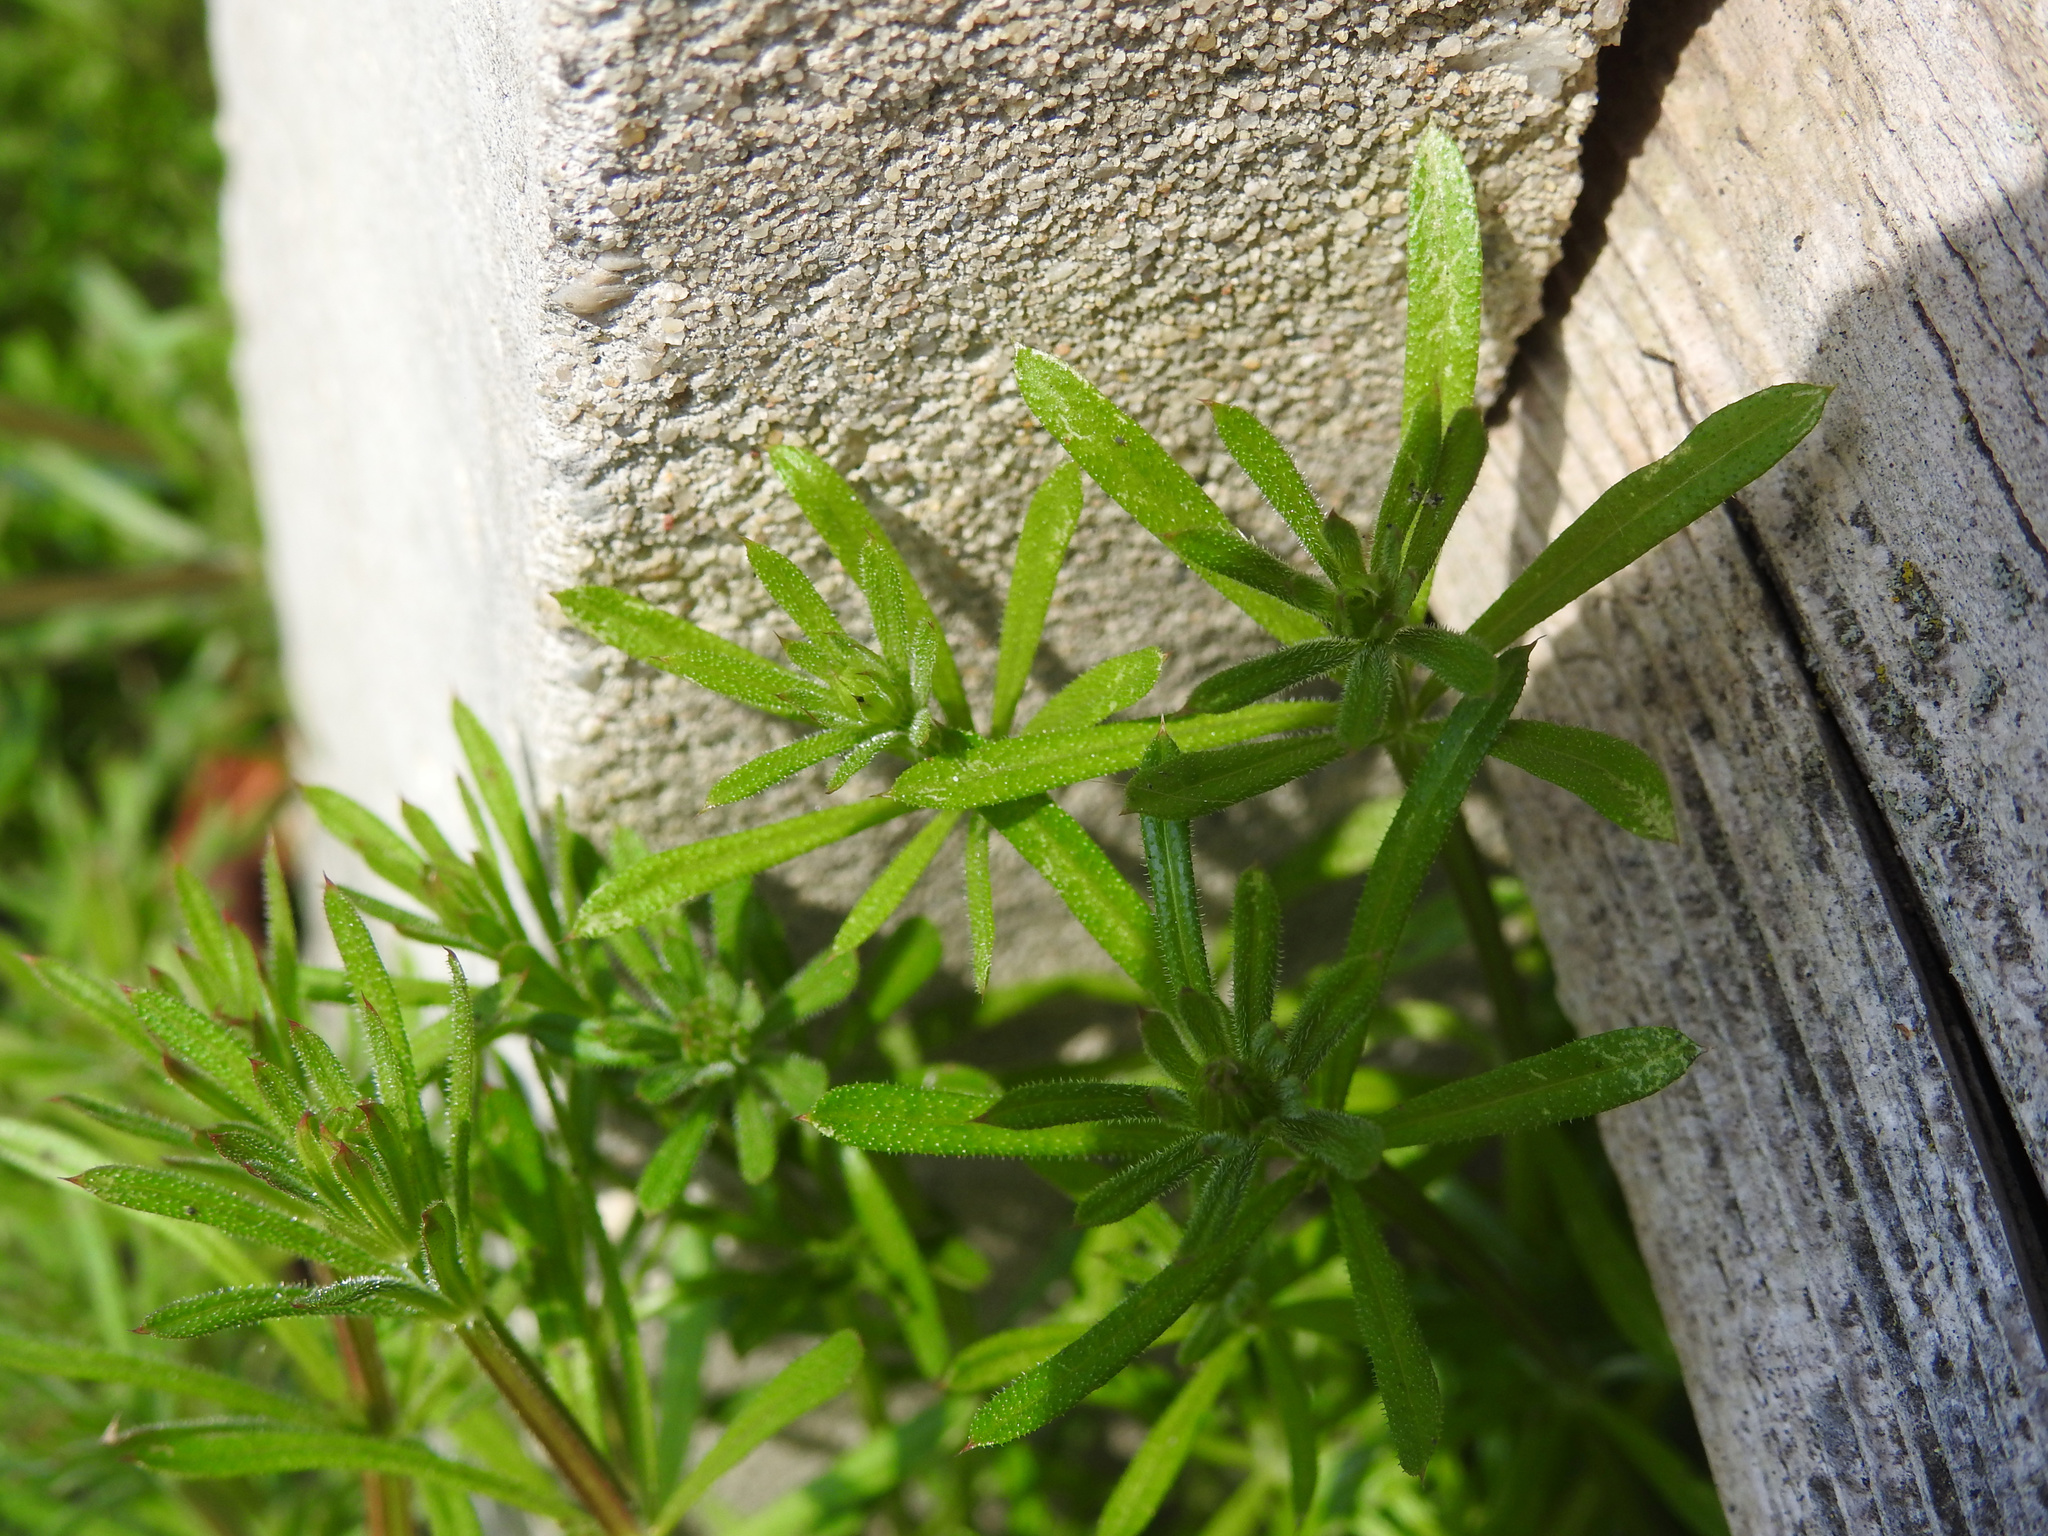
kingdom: Plantae
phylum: Tracheophyta
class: Magnoliopsida
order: Gentianales
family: Rubiaceae
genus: Galium
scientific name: Galium aparine
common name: Cleavers
